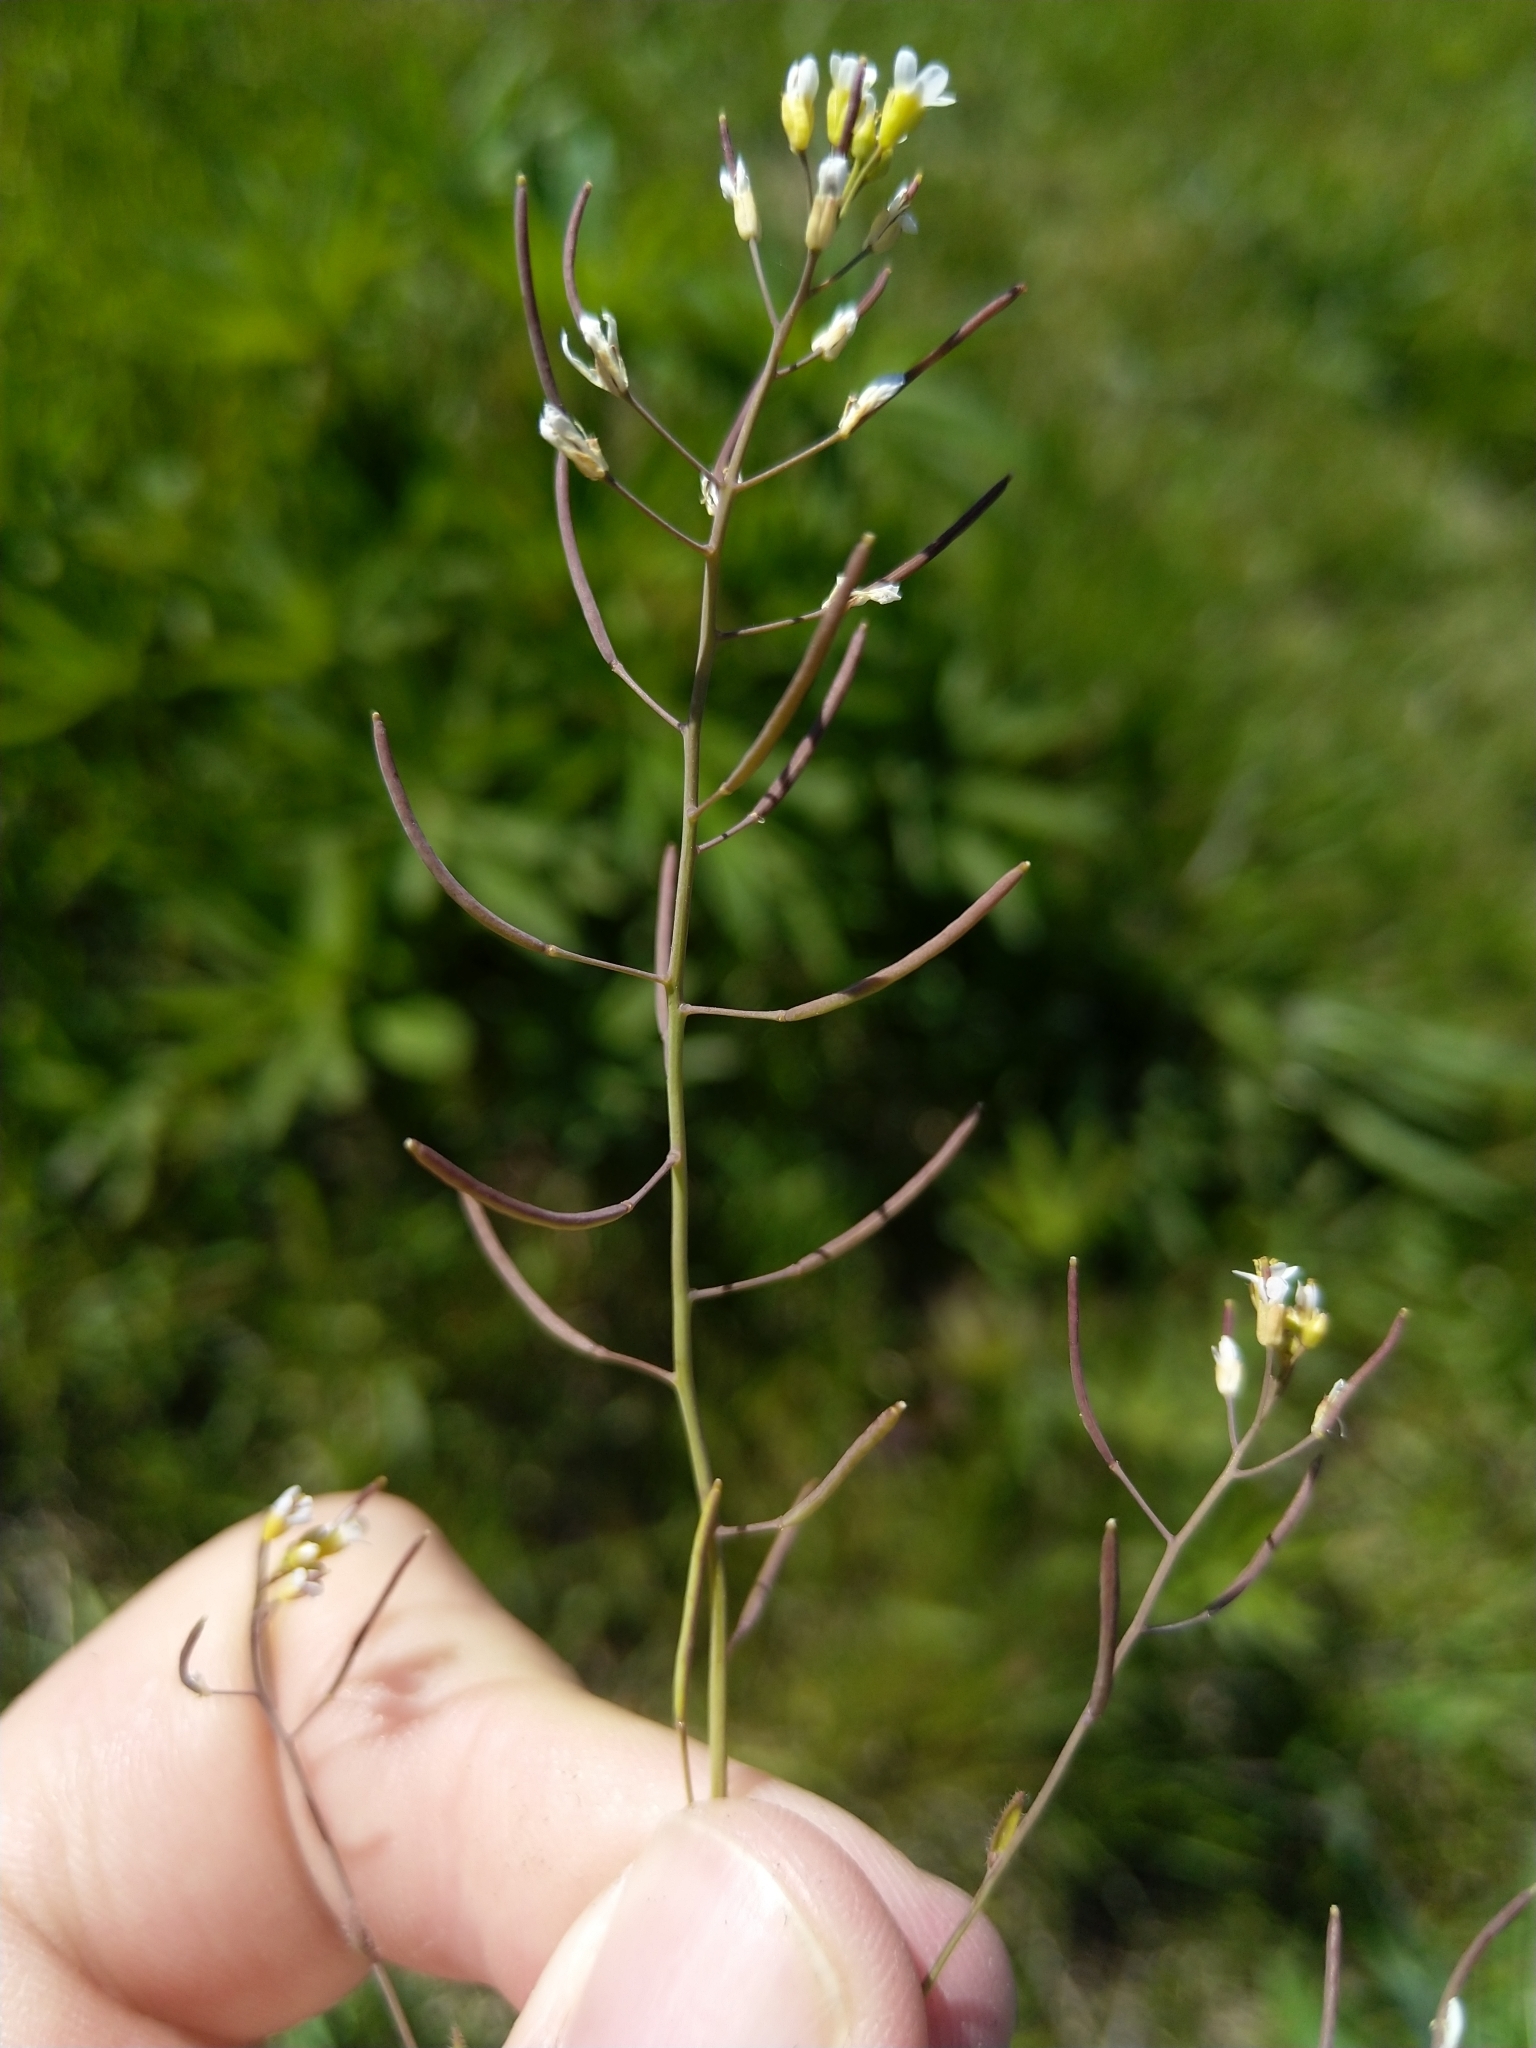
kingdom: Plantae
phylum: Tracheophyta
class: Magnoliopsida
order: Brassicales
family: Brassicaceae
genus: Arabidopsis
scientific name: Arabidopsis thaliana
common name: Thale cress
